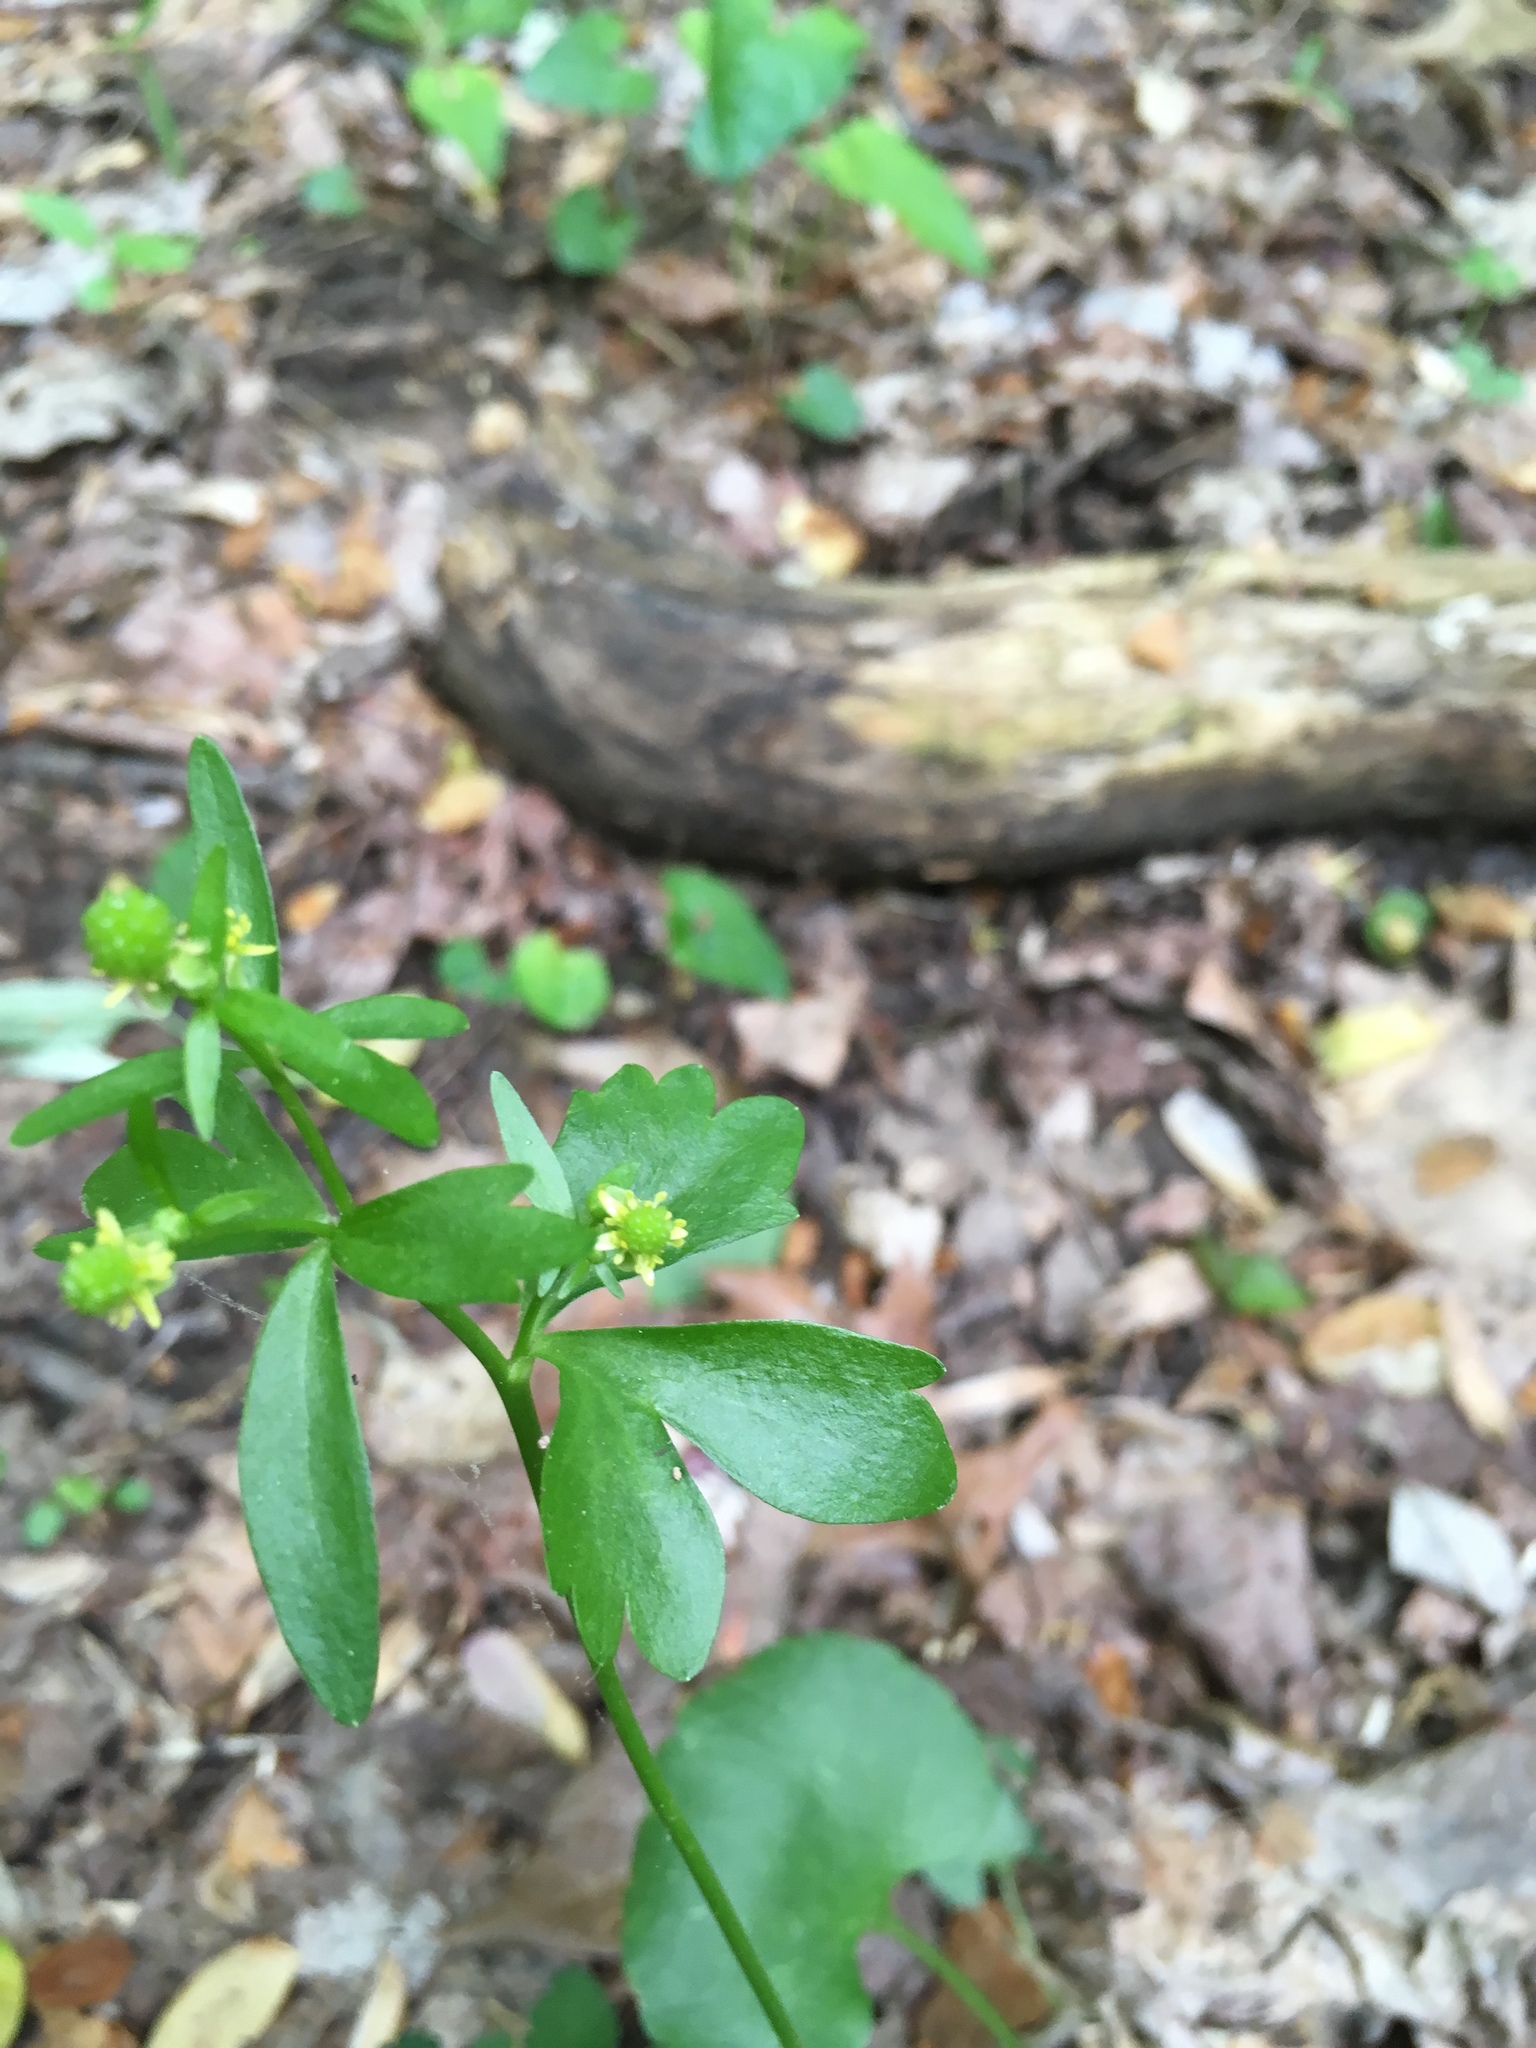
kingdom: Plantae
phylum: Tracheophyta
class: Magnoliopsida
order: Ranunculales
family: Ranunculaceae
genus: Ranunculus
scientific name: Ranunculus abortivus
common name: Early wood buttercup
